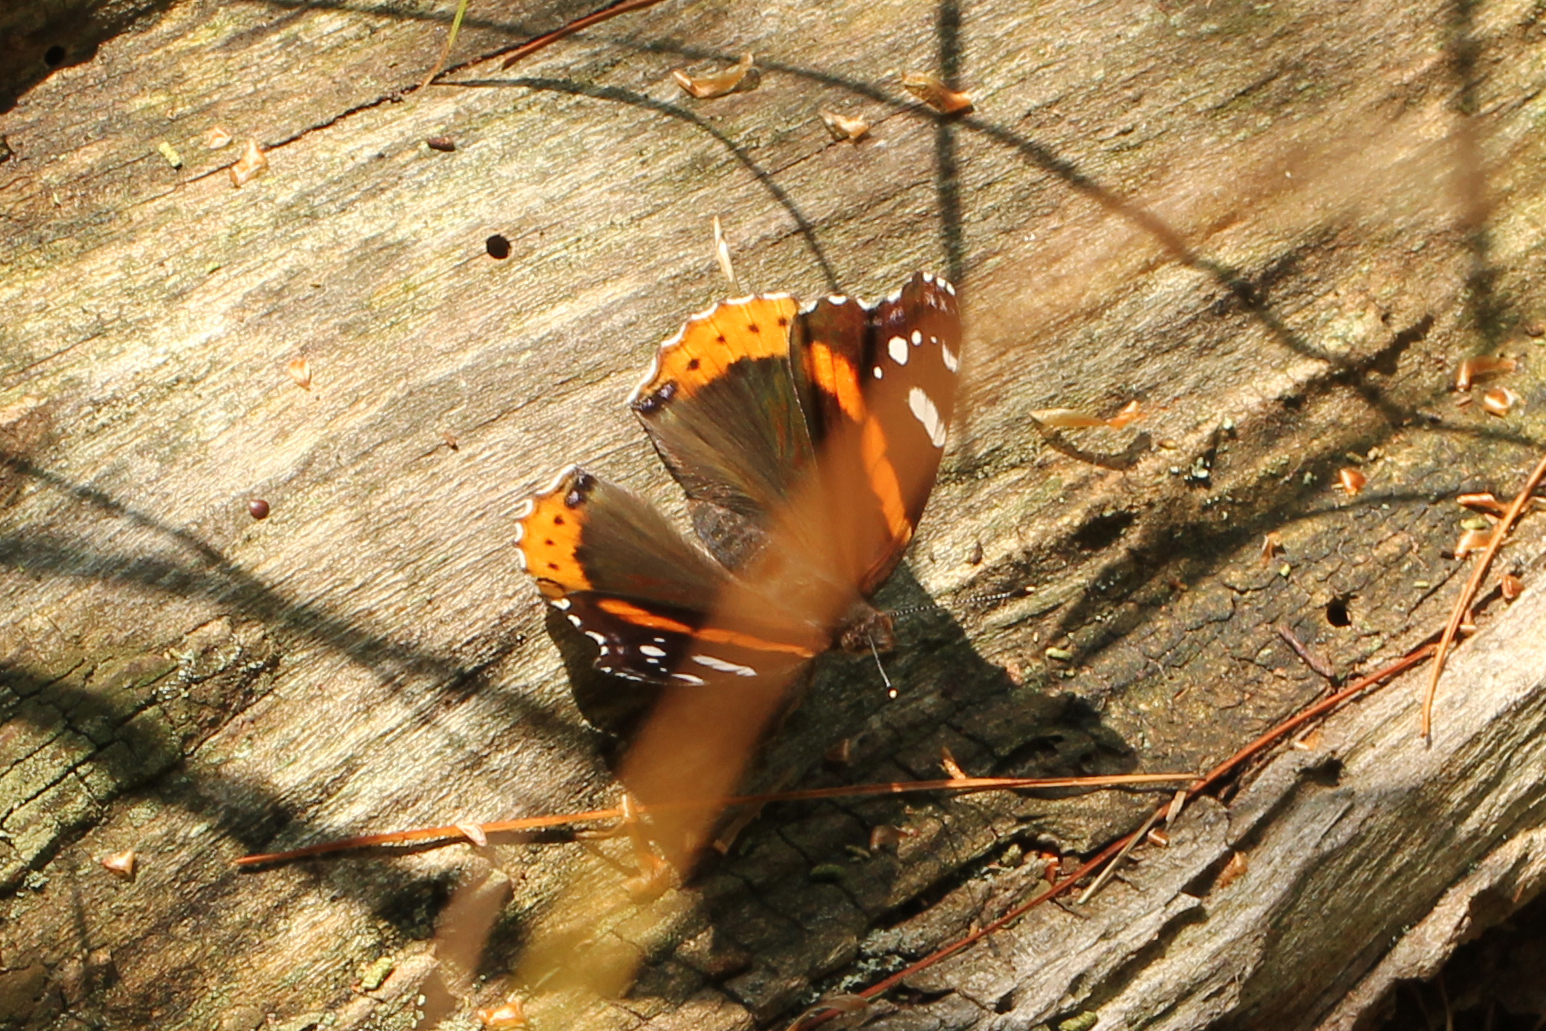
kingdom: Animalia
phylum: Arthropoda
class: Insecta
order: Lepidoptera
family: Nymphalidae
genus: Vanessa
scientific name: Vanessa atalanta
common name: Red admiral
